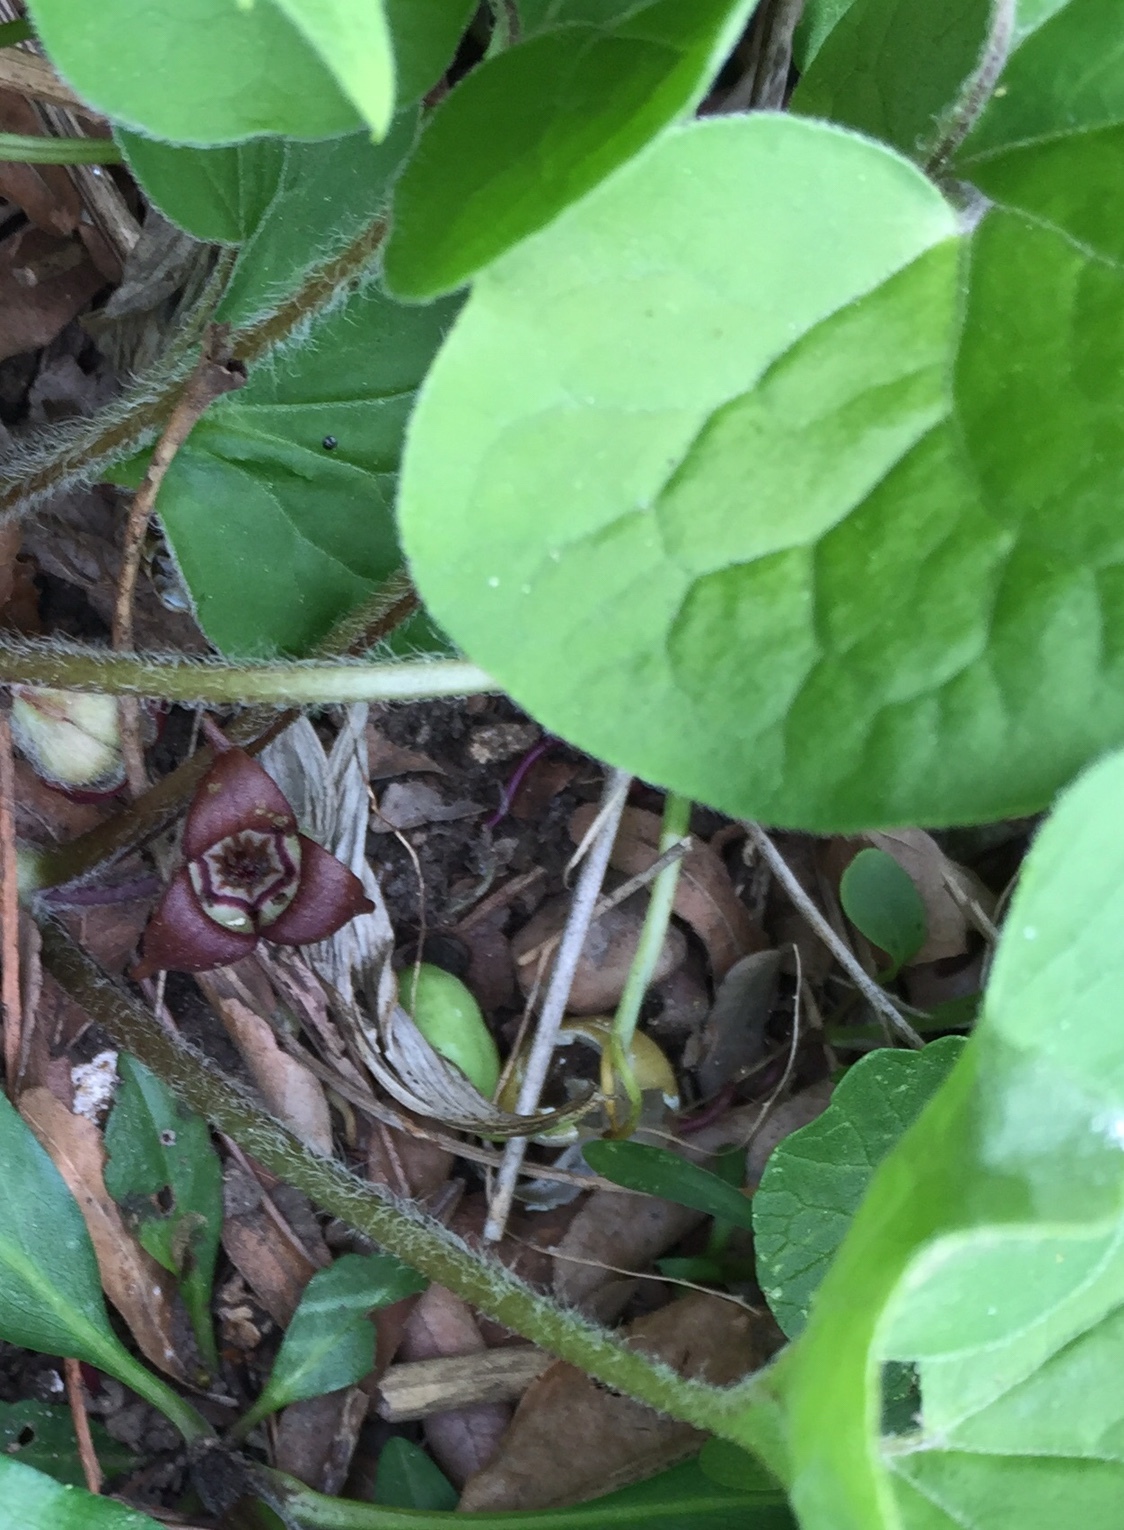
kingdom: Plantae
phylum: Tracheophyta
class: Magnoliopsida
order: Piperales
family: Aristolochiaceae
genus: Asarum
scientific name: Asarum canadense
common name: Wild ginger
